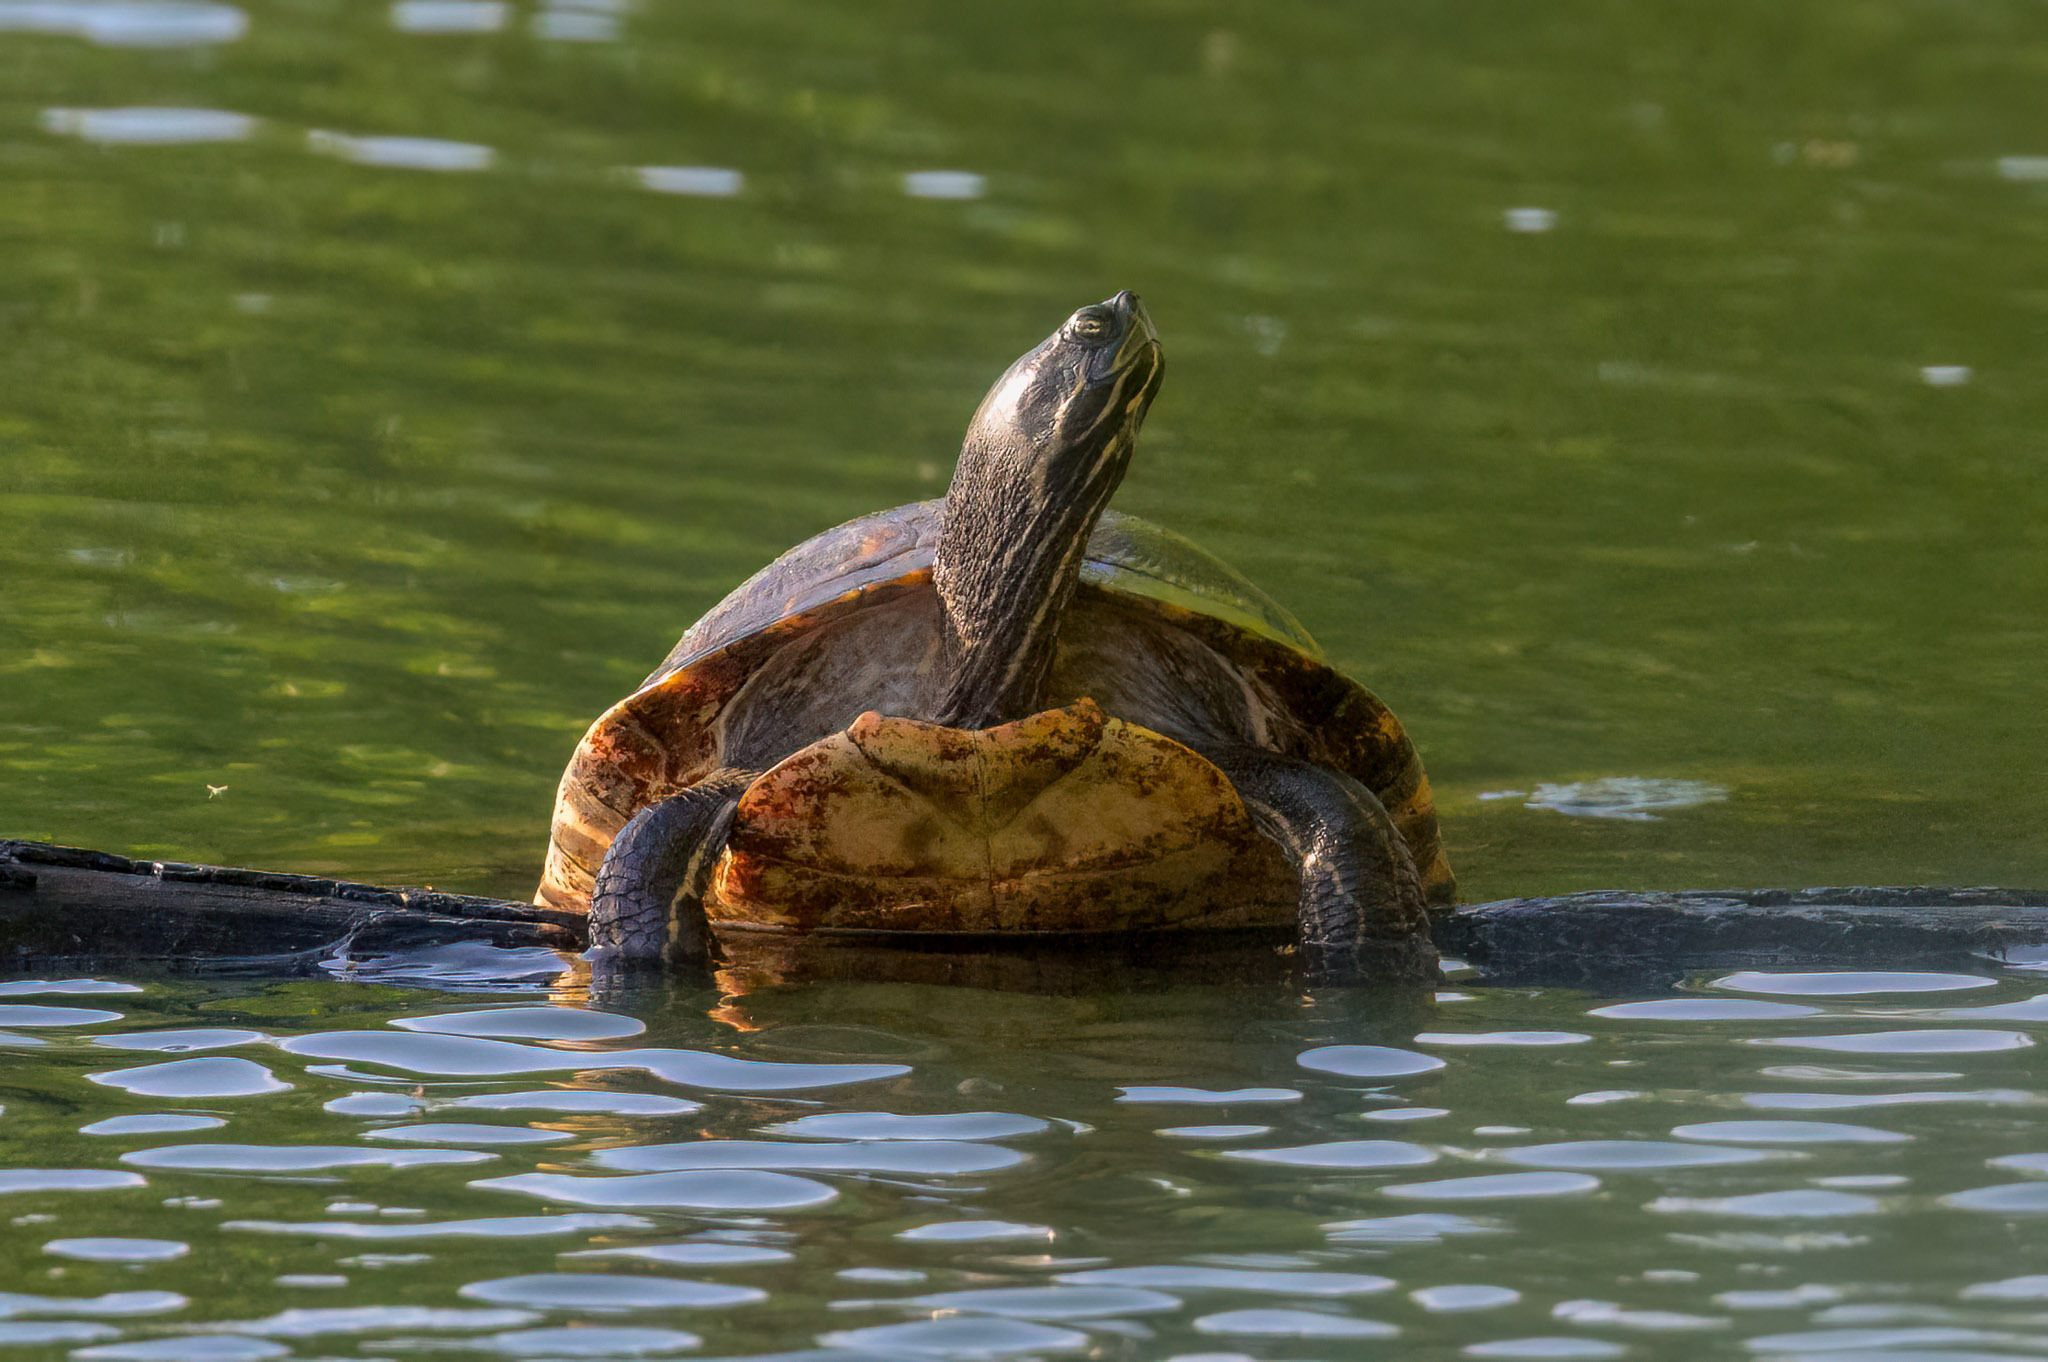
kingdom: Animalia
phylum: Chordata
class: Testudines
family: Emydidae
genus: Pseudemys
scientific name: Pseudemys concinna
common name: Eastern river cooter
